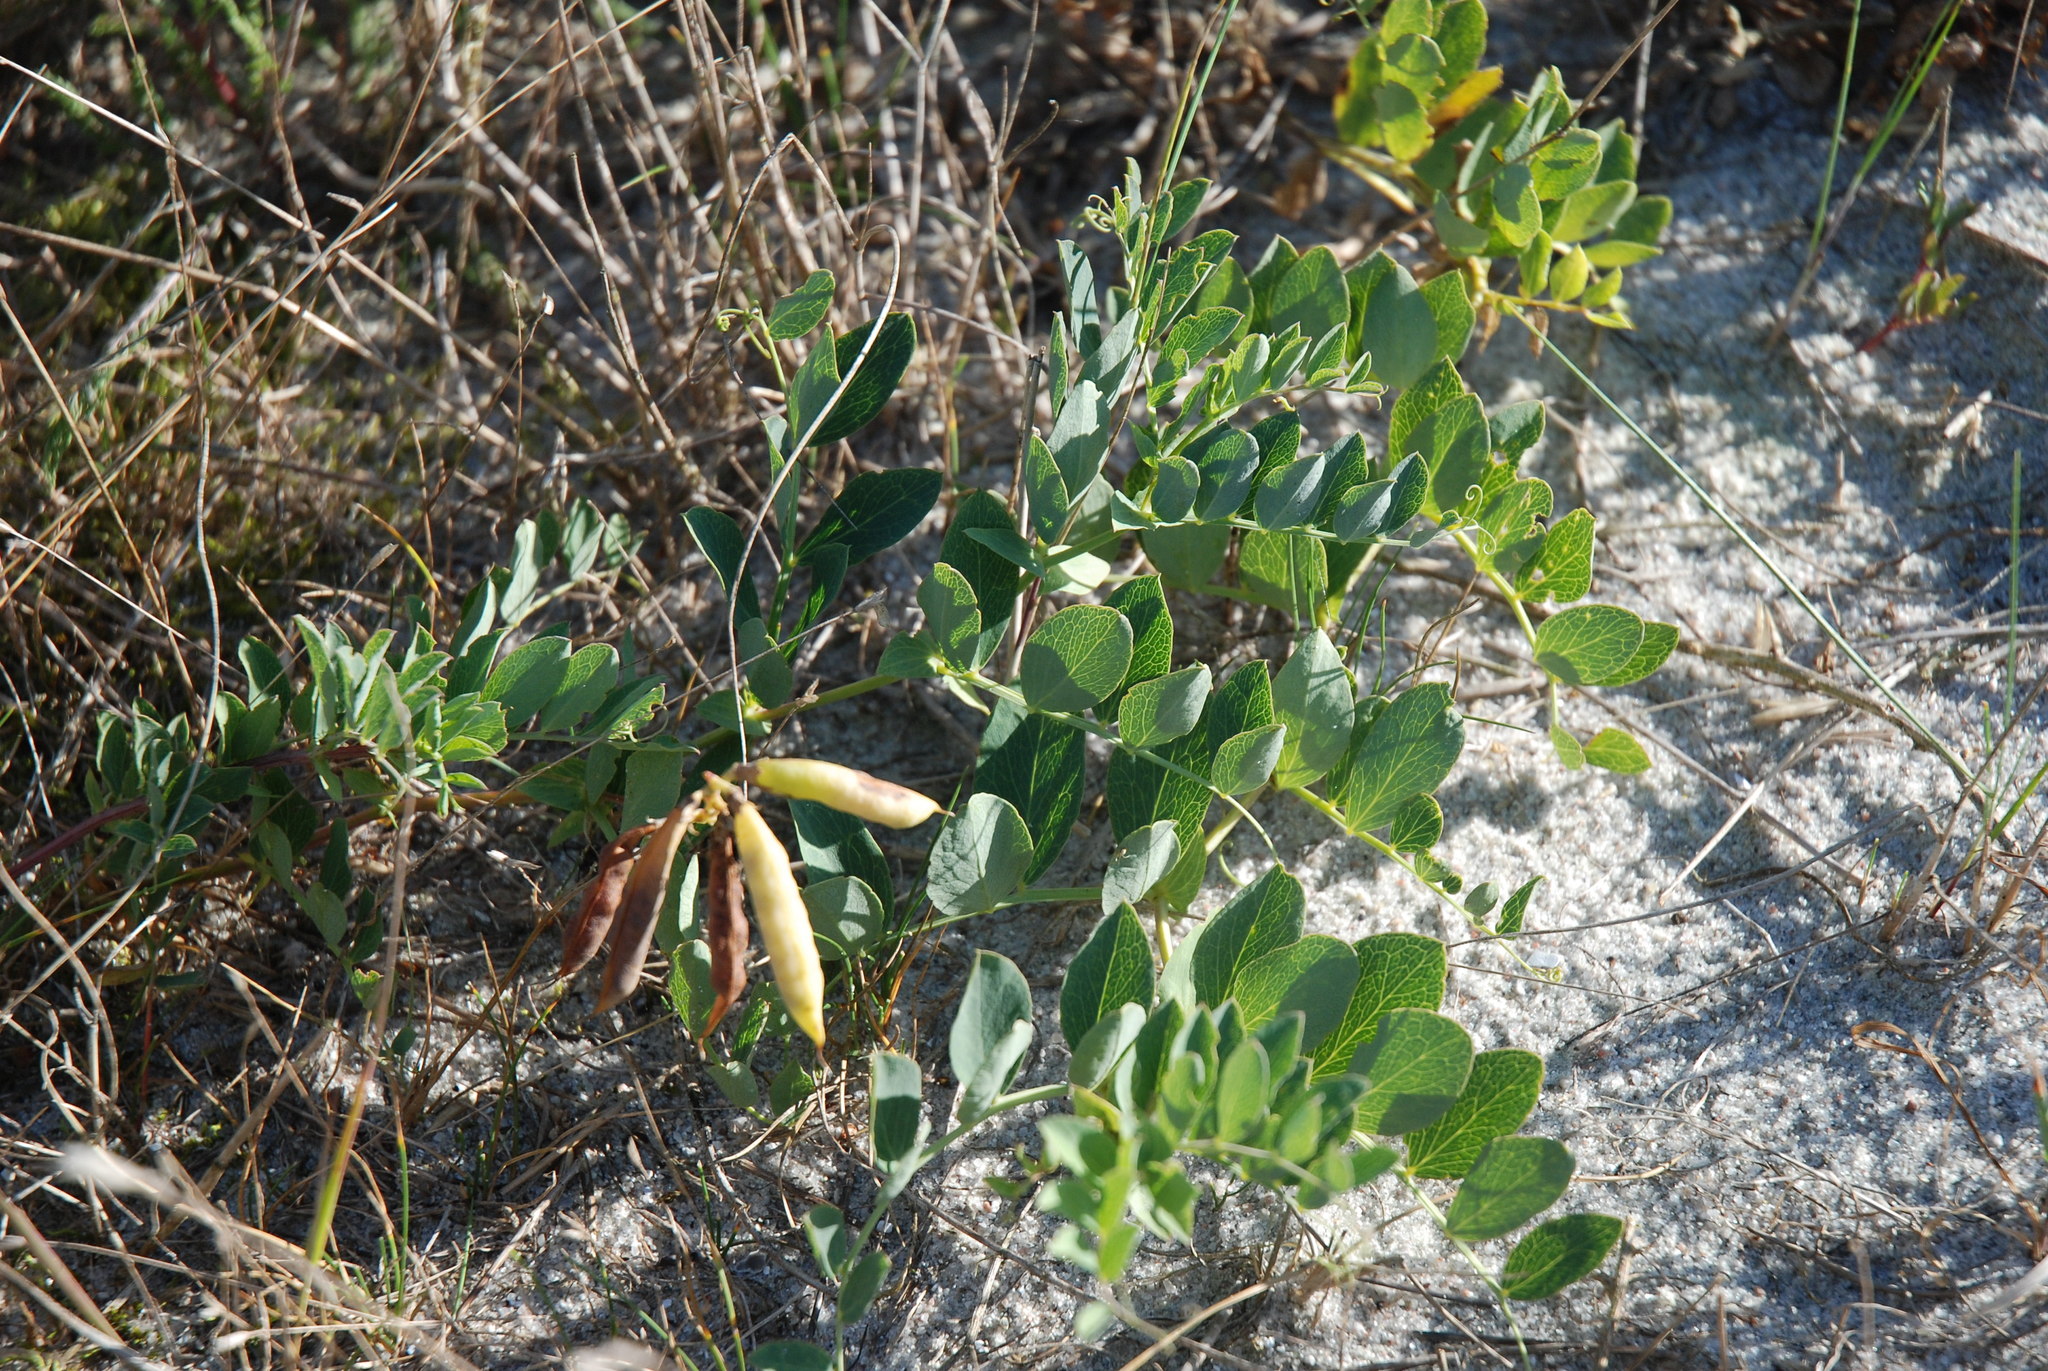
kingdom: Plantae
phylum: Tracheophyta
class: Magnoliopsida
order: Fabales
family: Fabaceae
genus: Lathyrus
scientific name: Lathyrus japonicus
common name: Sea pea
